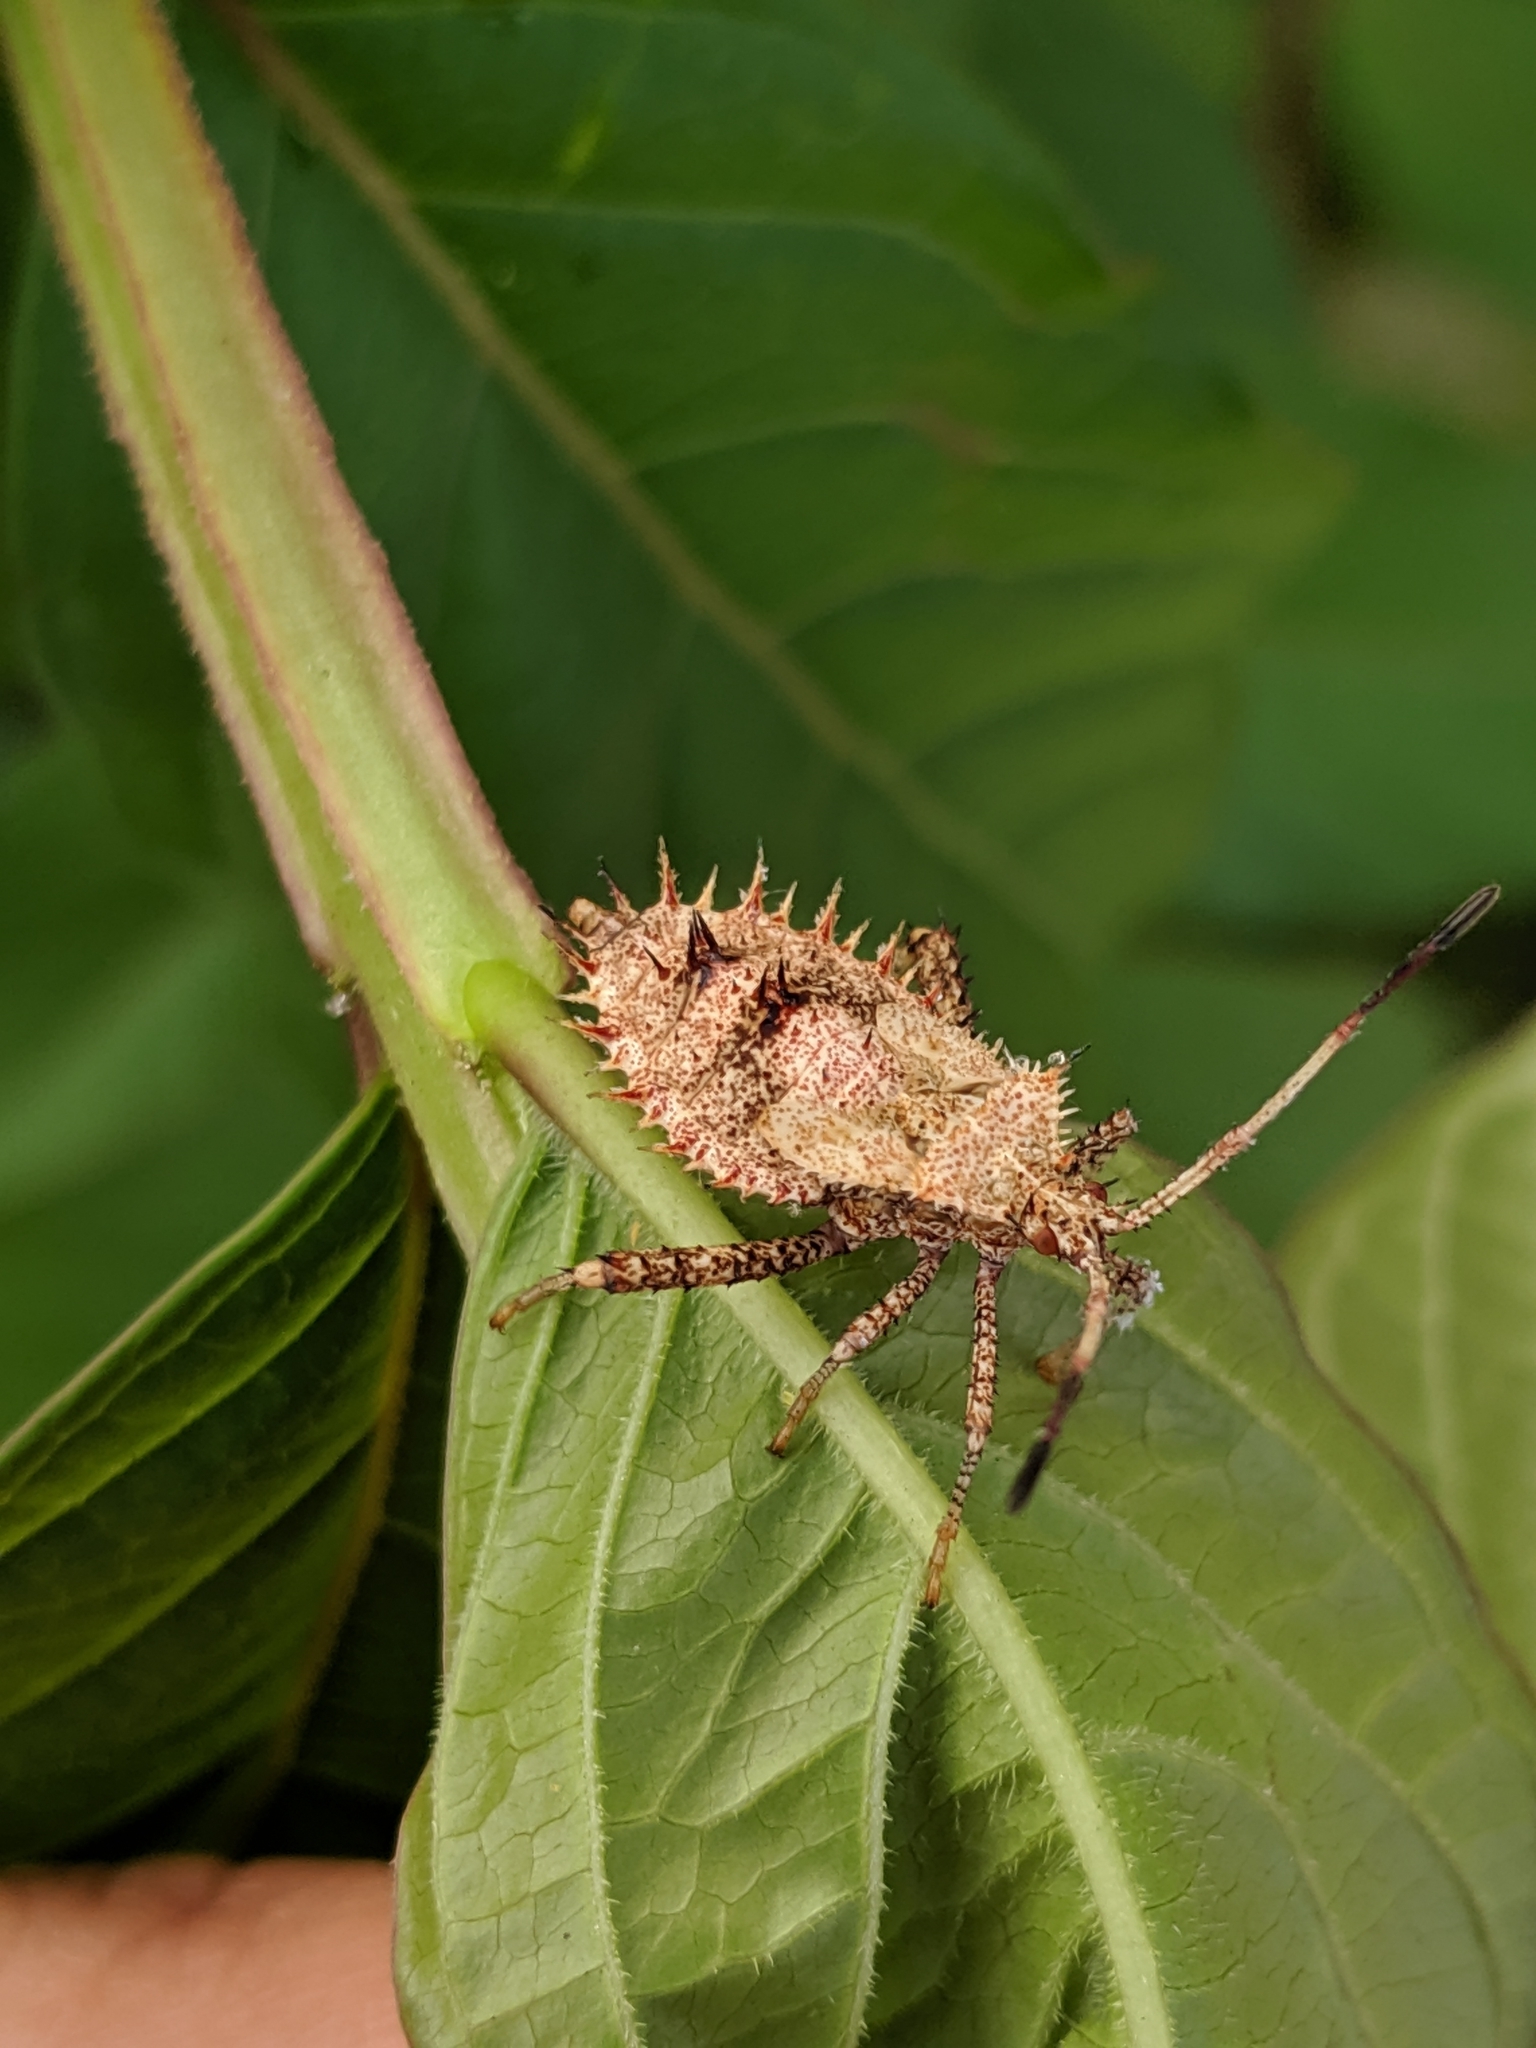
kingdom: Animalia
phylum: Arthropoda
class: Insecta
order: Hemiptera
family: Coreidae
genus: Euthochtha
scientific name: Euthochtha galeator
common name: Helmeted squash bug
